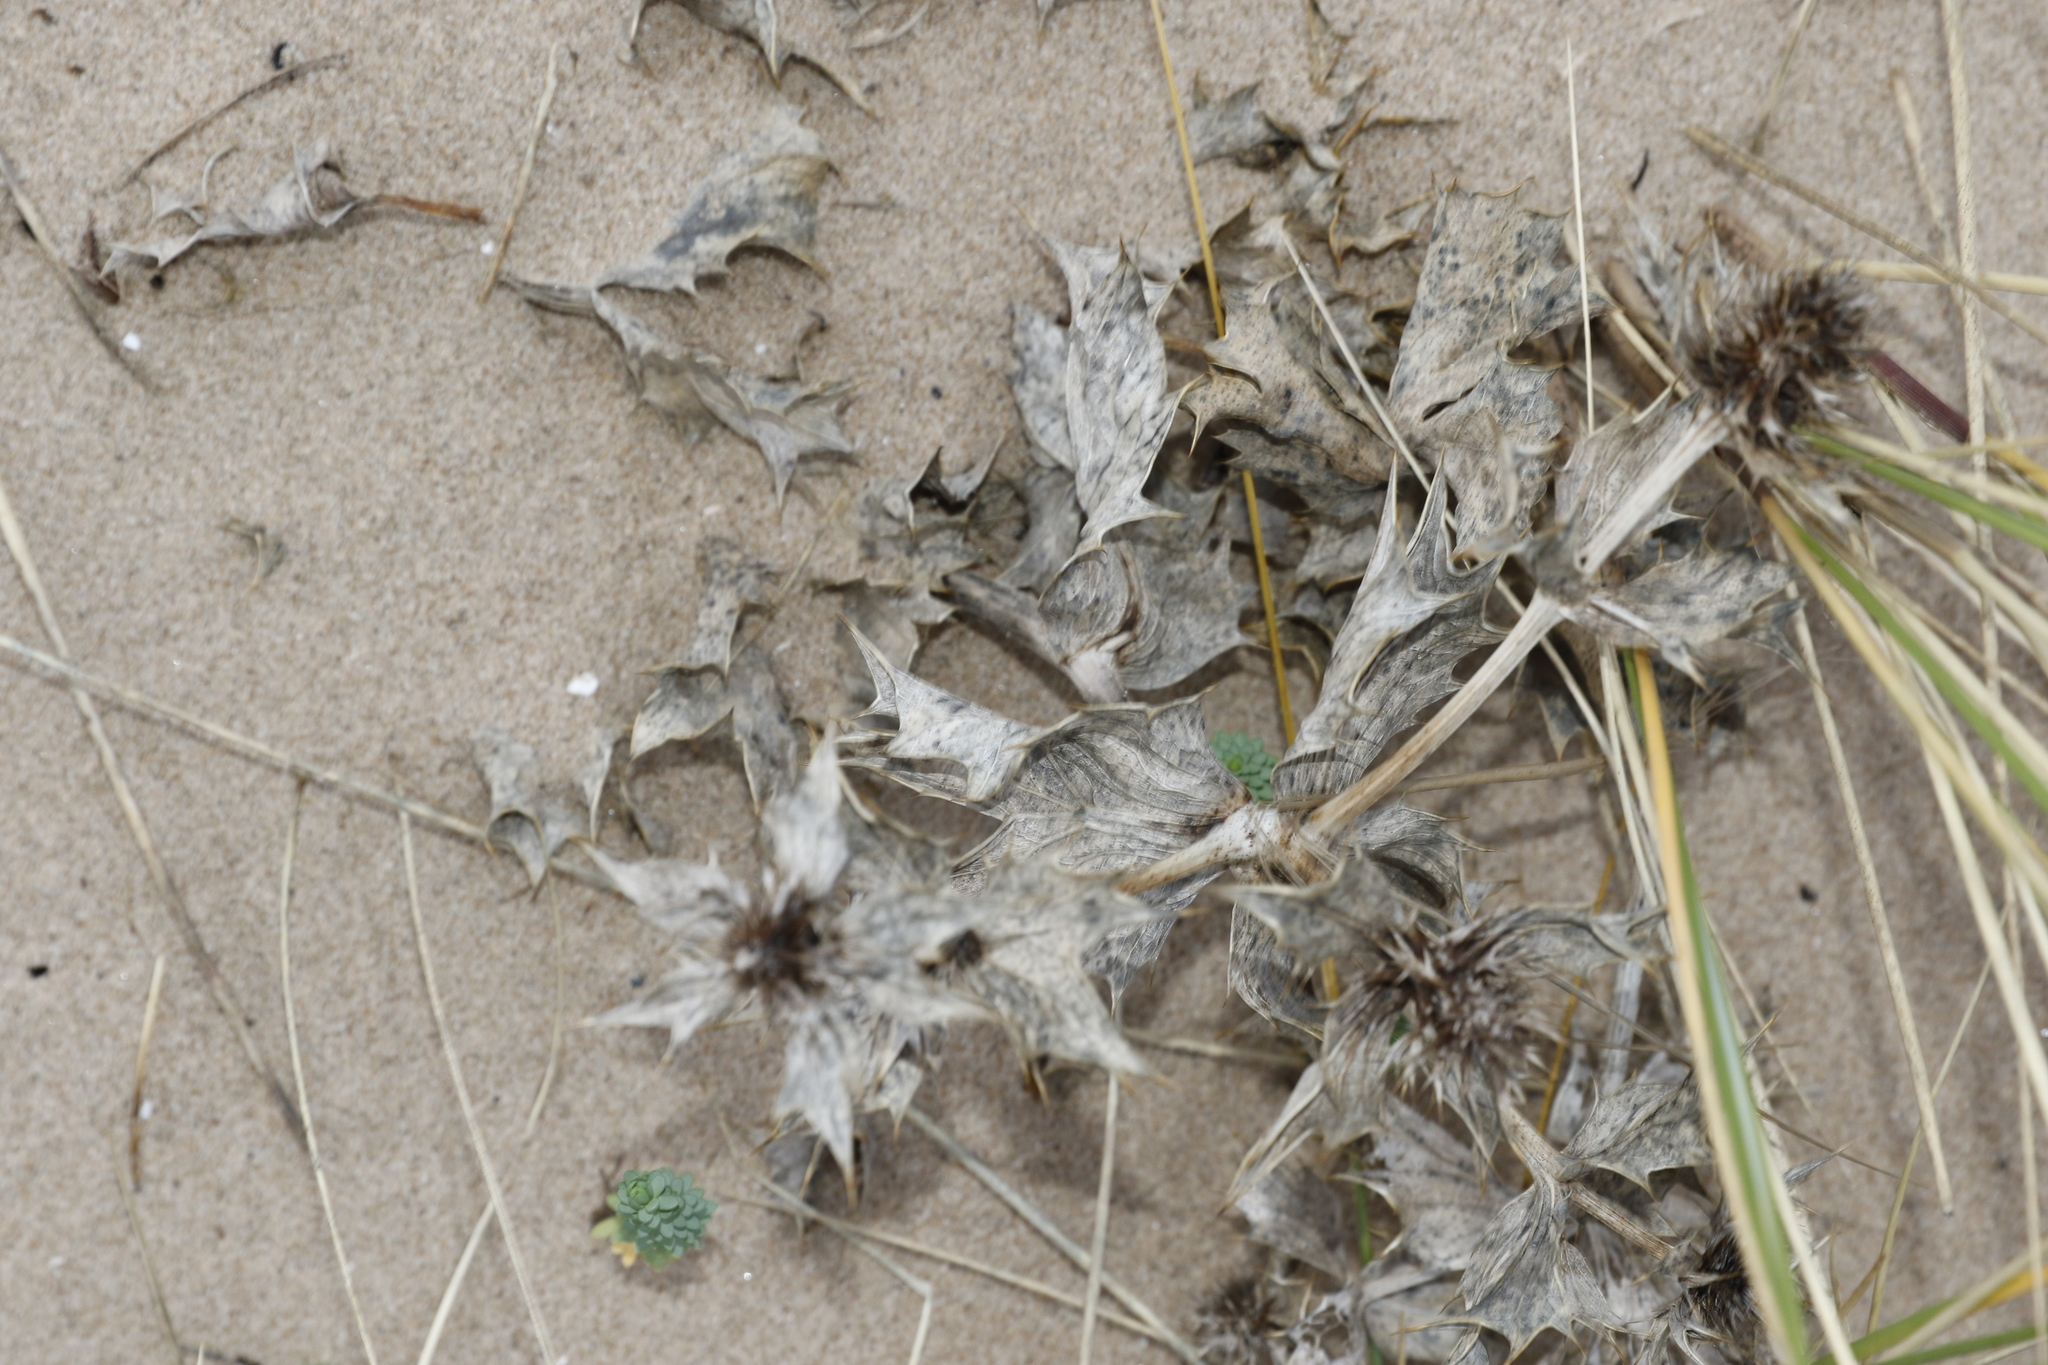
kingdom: Plantae
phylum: Tracheophyta
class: Magnoliopsida
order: Apiales
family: Apiaceae
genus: Eryngium
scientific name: Eryngium maritimum
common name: Sea-holly
